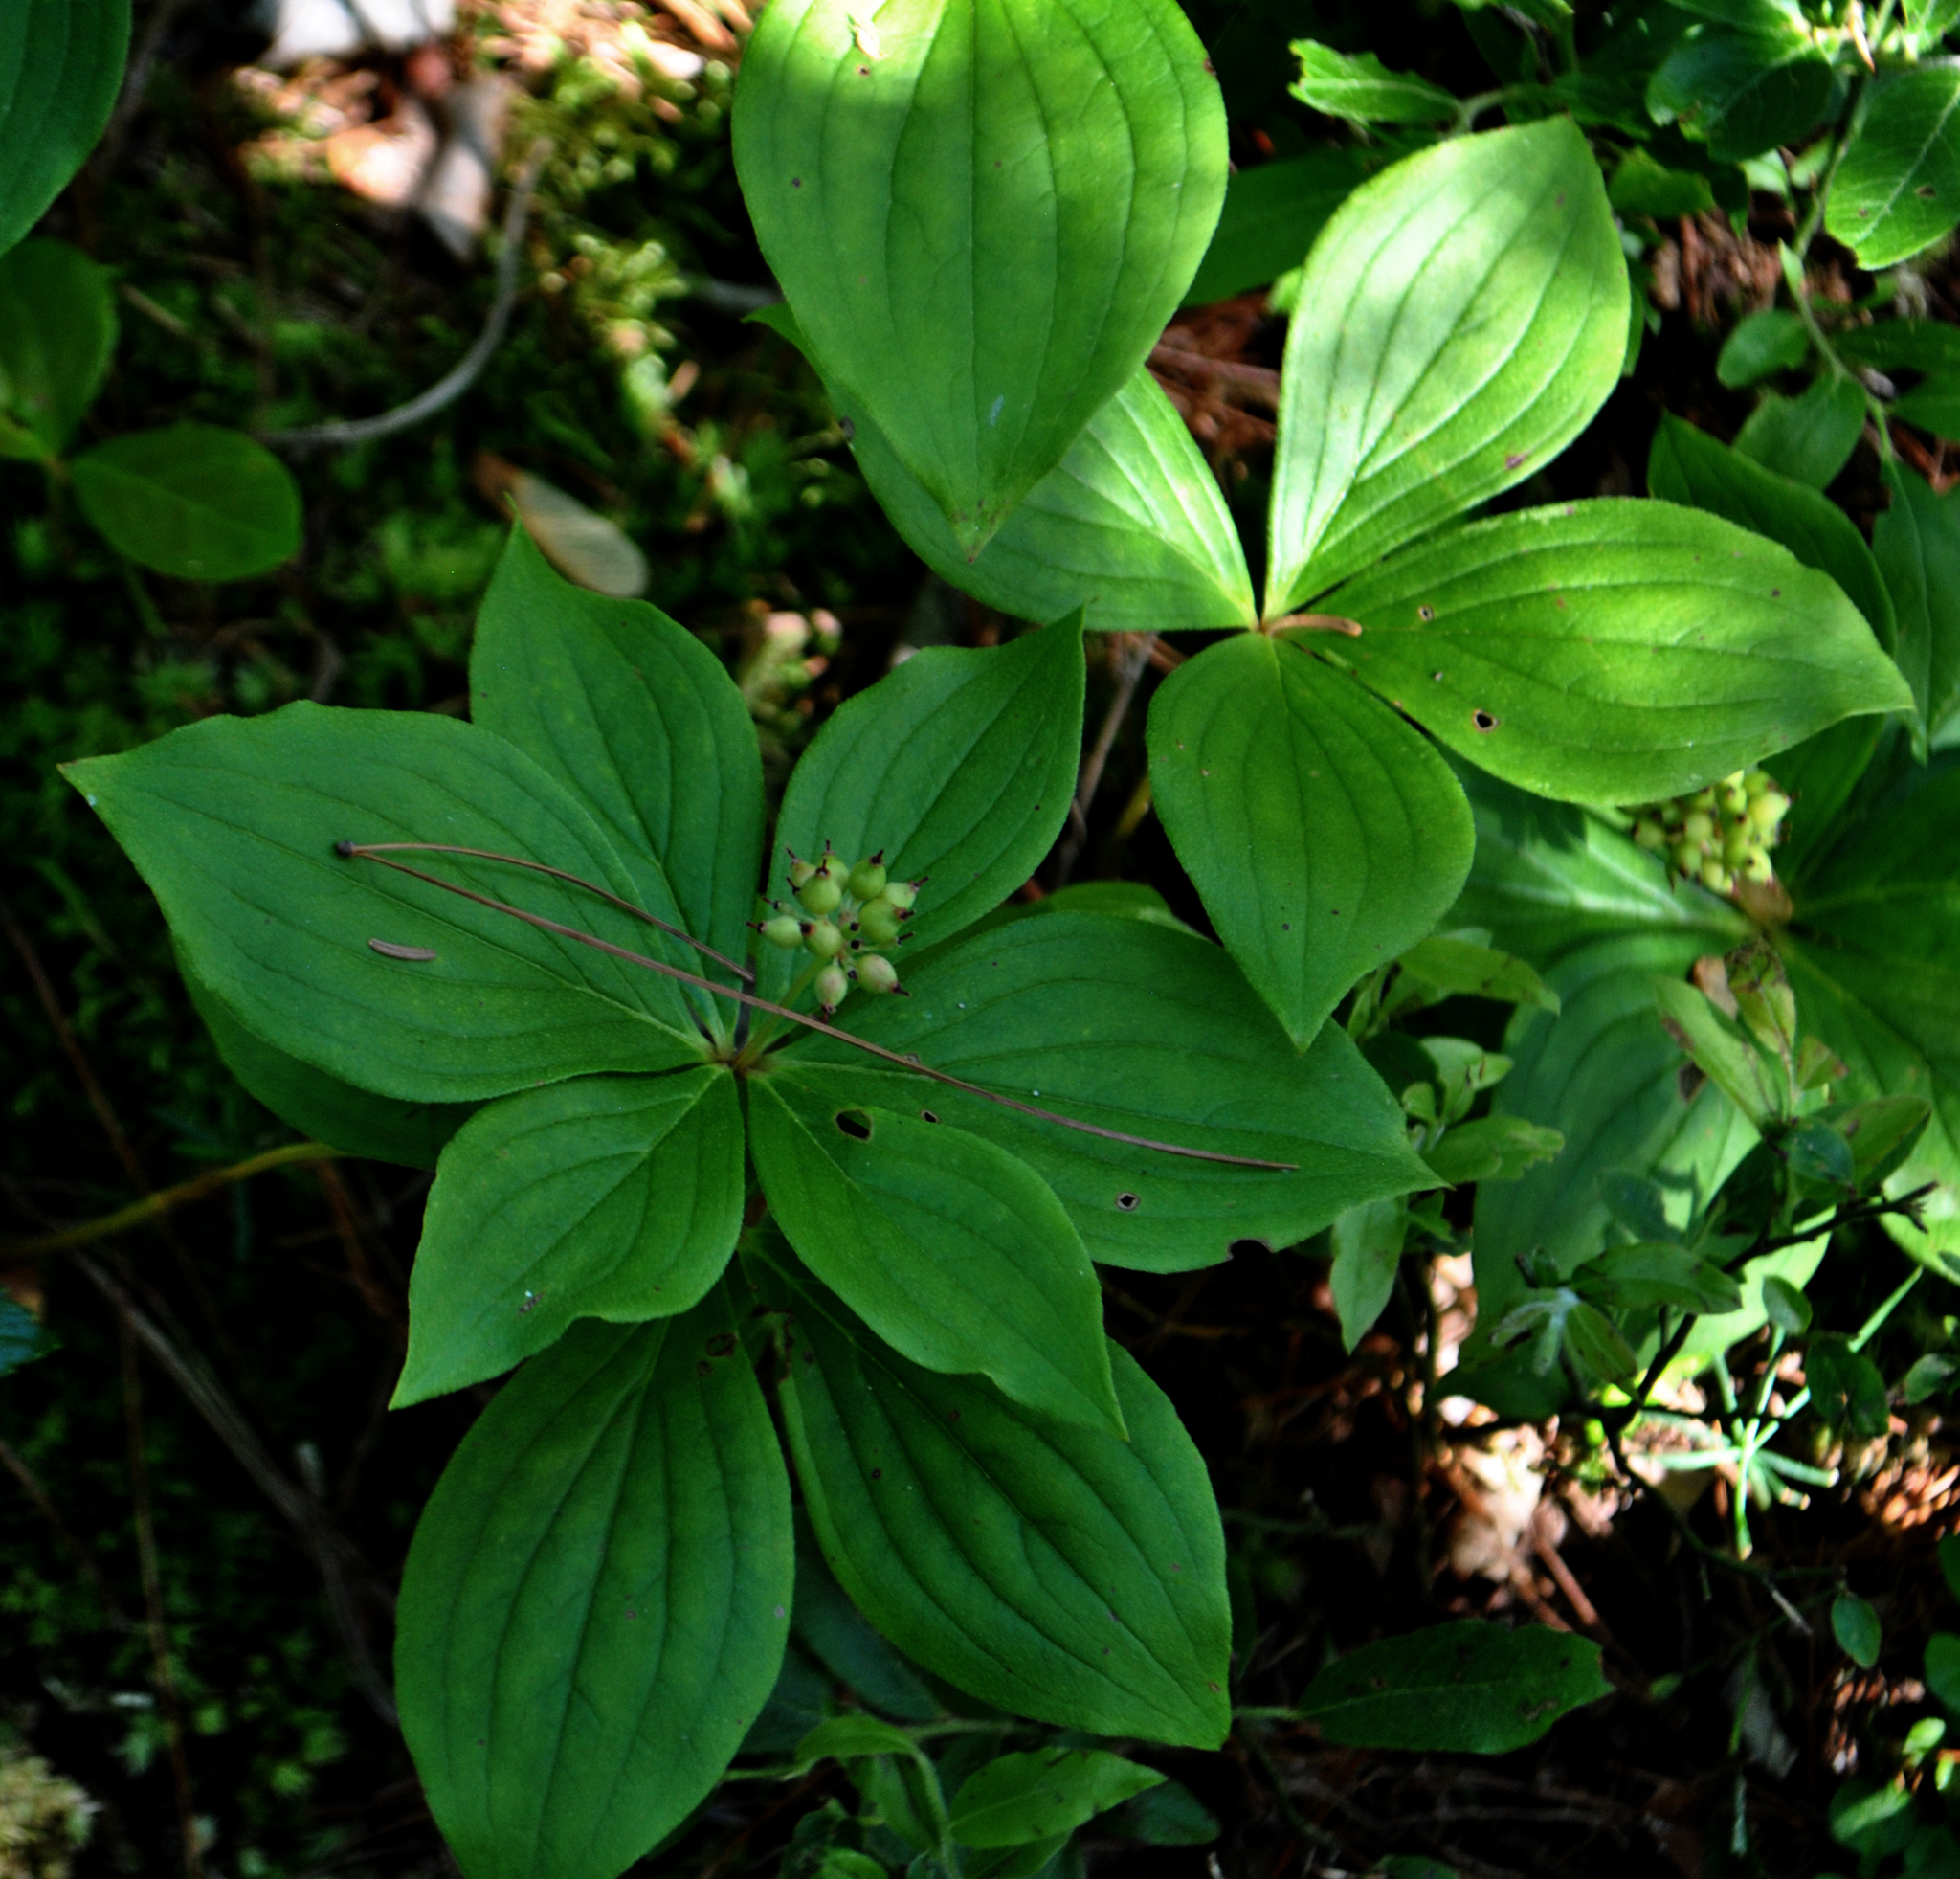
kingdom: Plantae
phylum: Tracheophyta
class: Magnoliopsida
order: Cornales
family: Cornaceae
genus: Cornus
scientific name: Cornus canadensis
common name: Creeping dogwood
